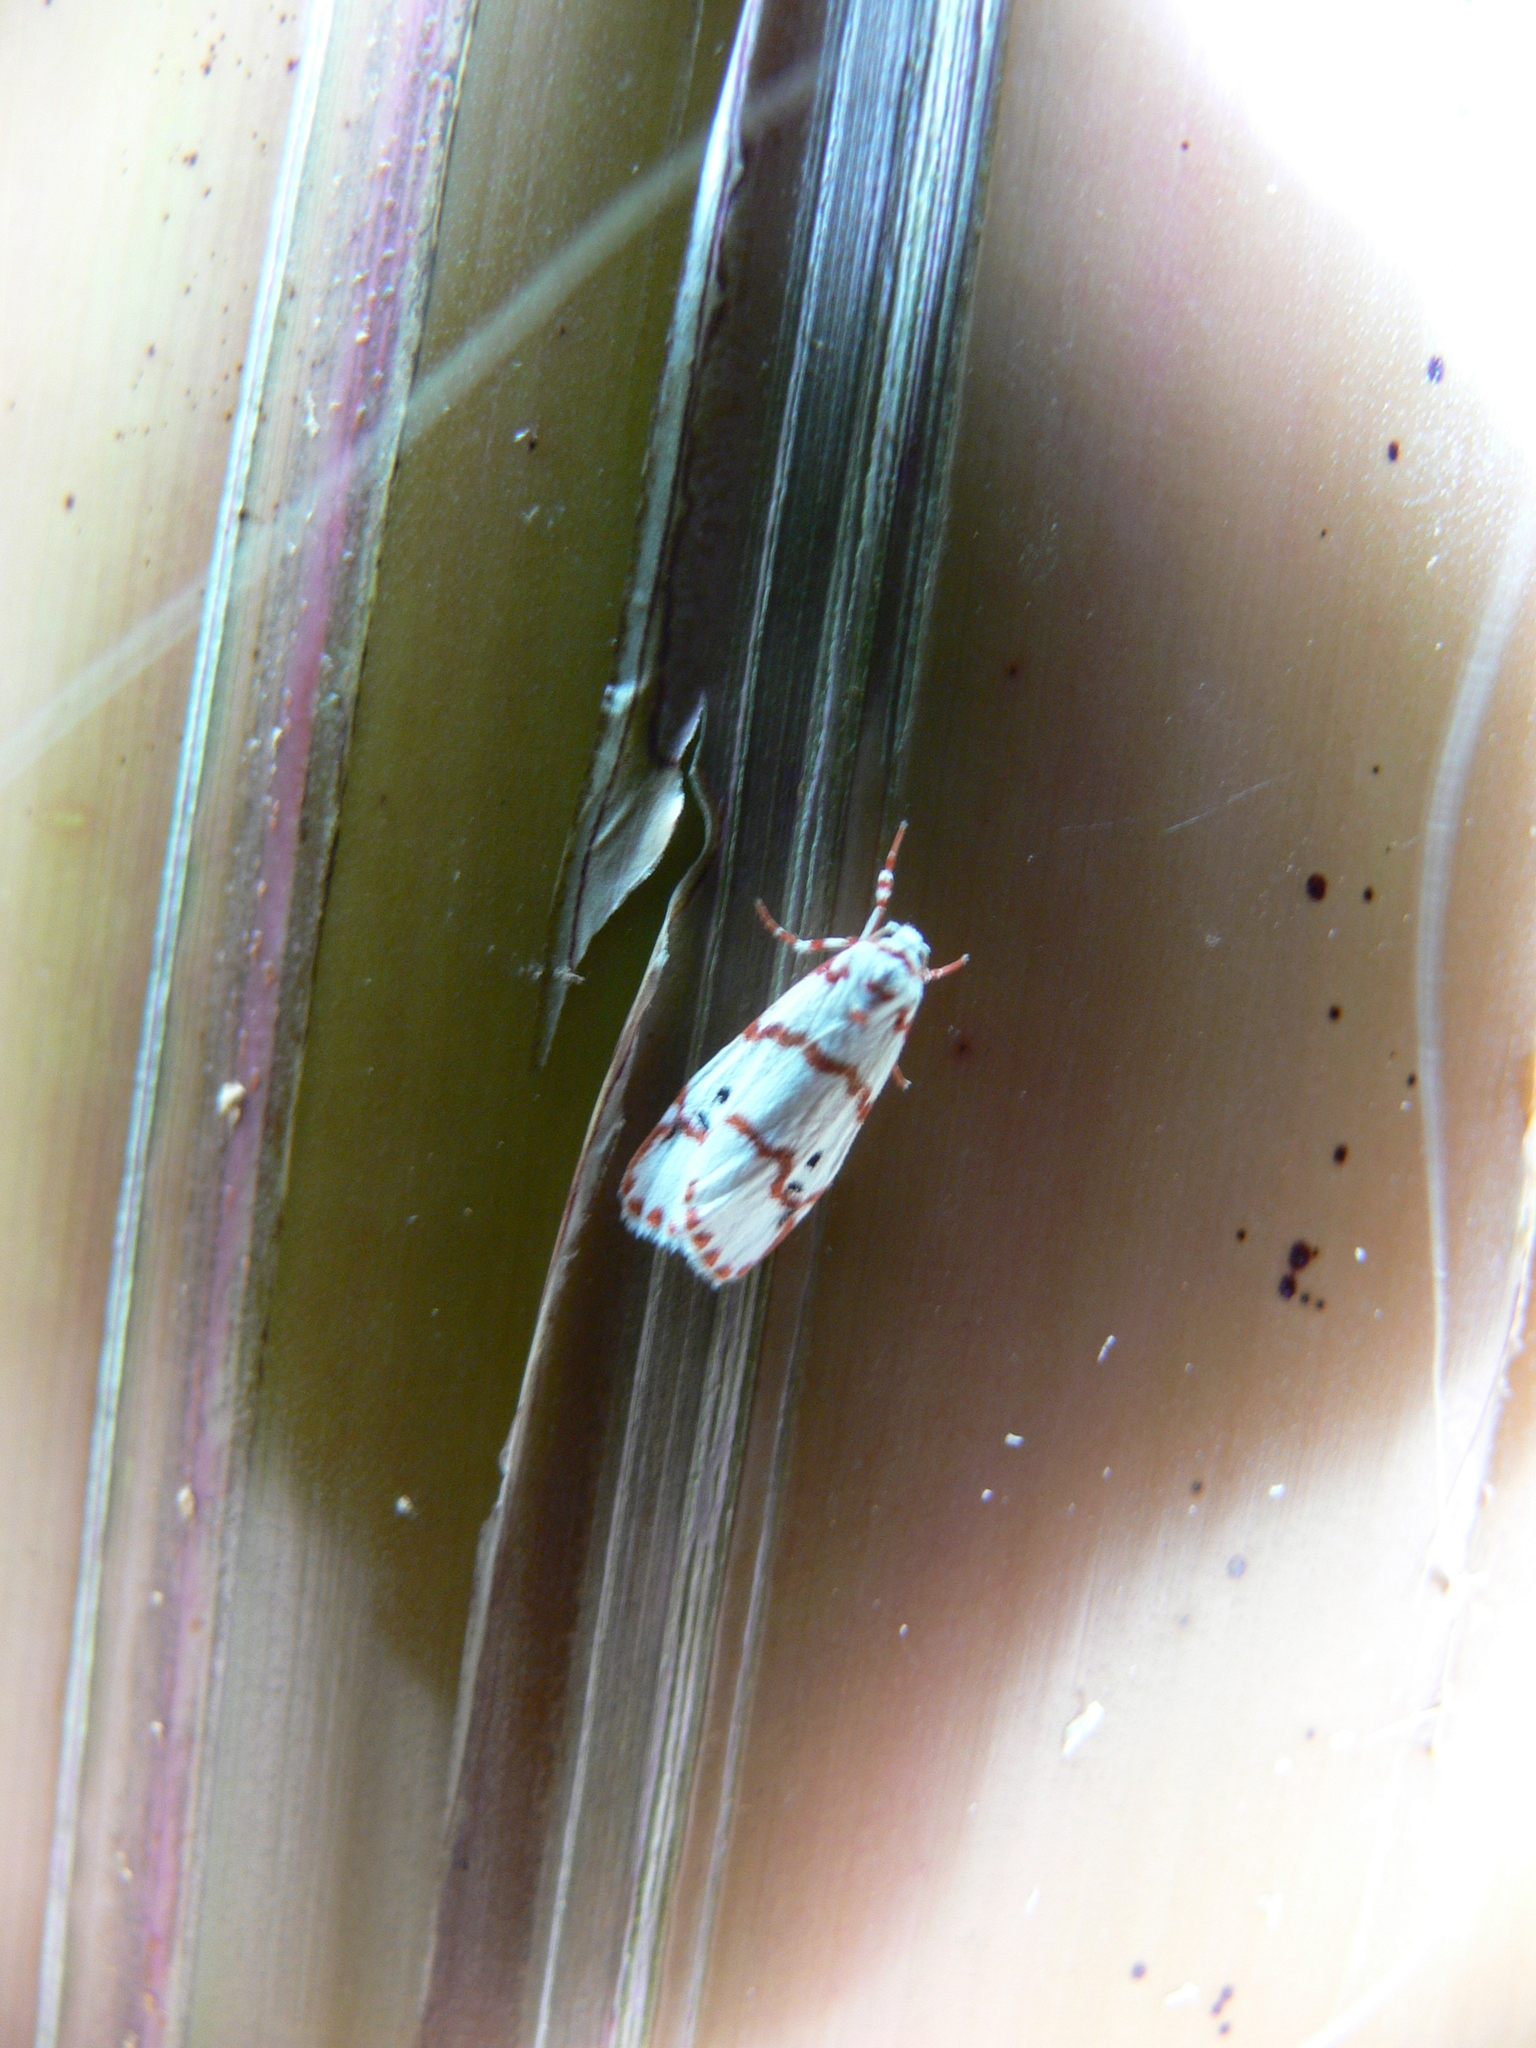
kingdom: Animalia
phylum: Arthropoda
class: Insecta
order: Lepidoptera
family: Erebidae
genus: Cyana
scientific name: Cyana amatura
